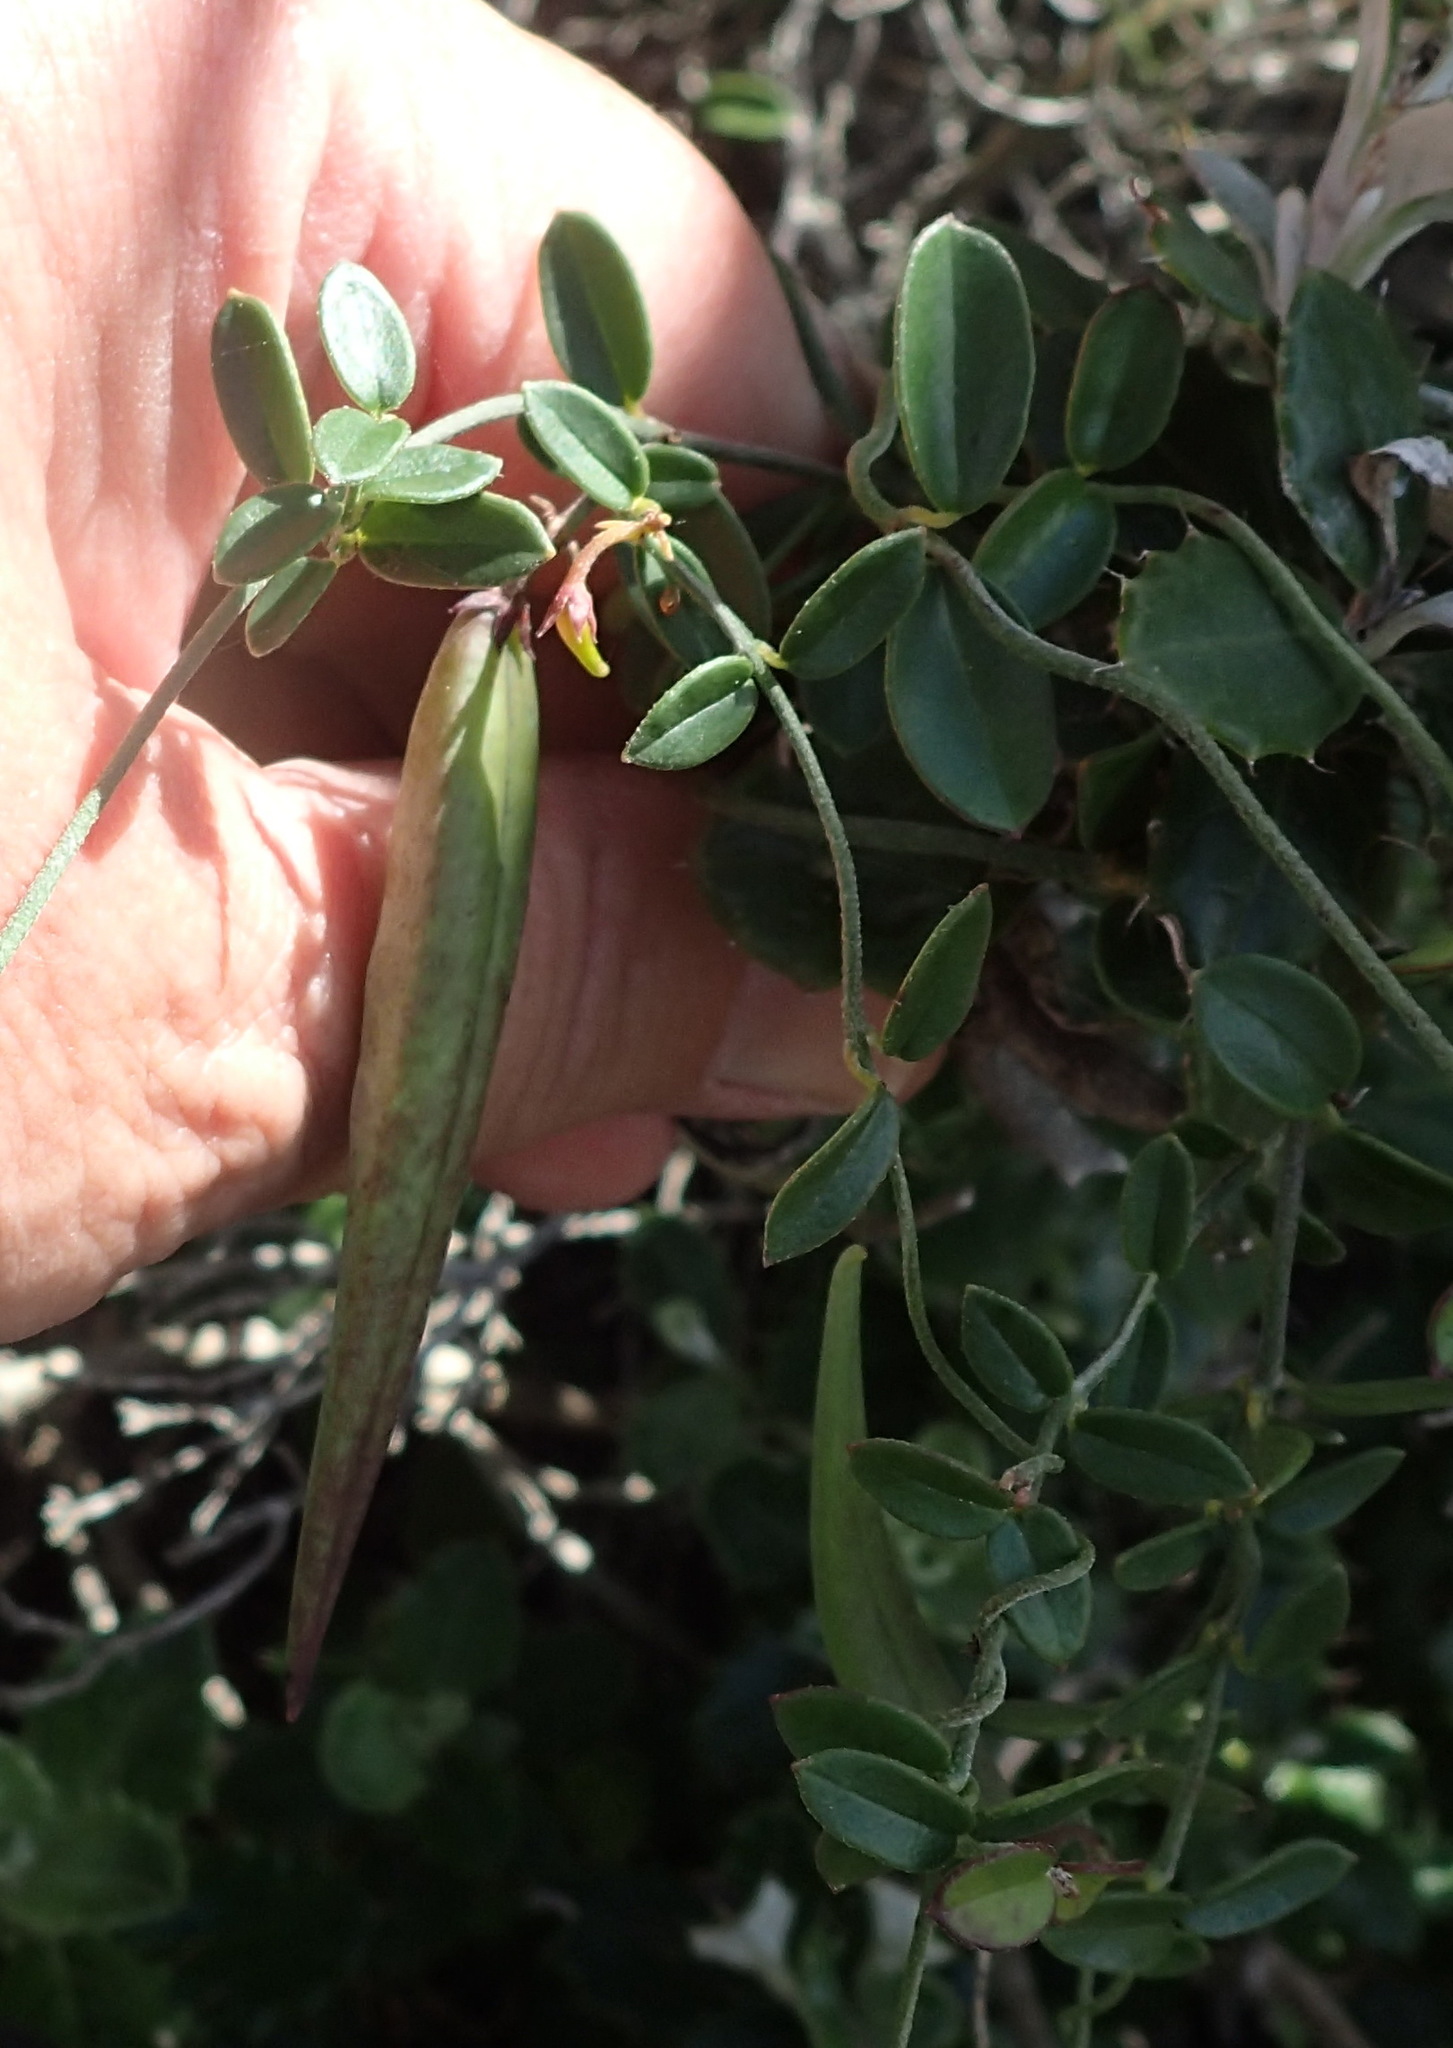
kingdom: Plantae
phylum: Tracheophyta
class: Magnoliopsida
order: Gentianales
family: Apocynaceae
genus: Astephanus
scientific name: Astephanus triflorus
